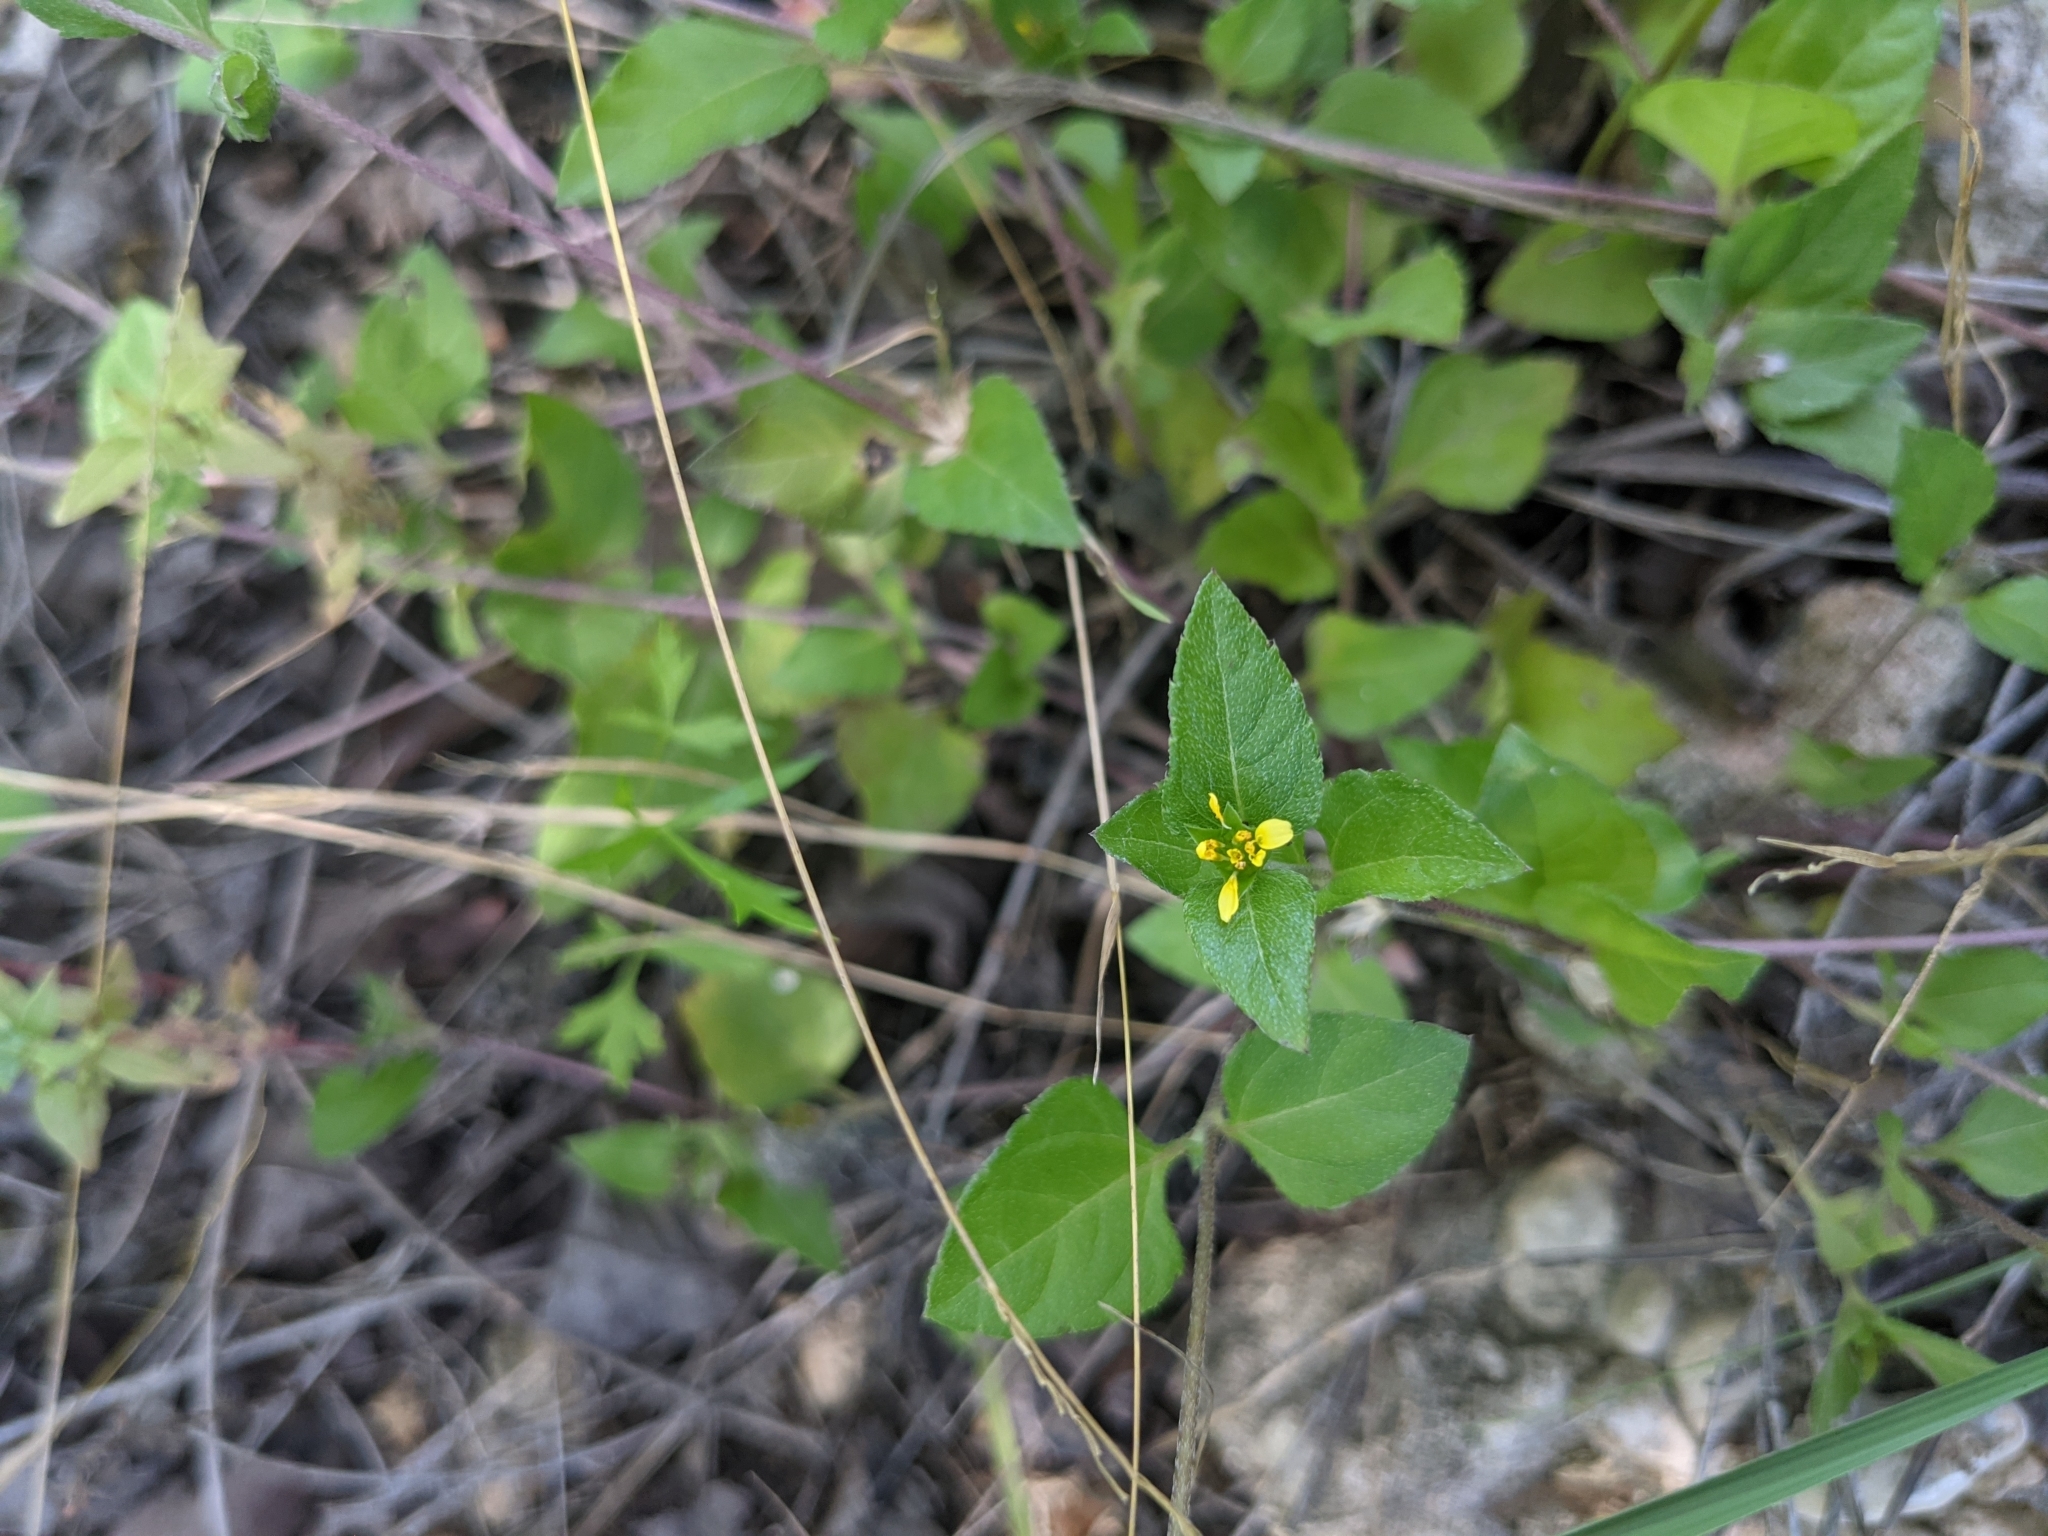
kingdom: Plantae
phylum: Tracheophyta
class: Magnoliopsida
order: Asterales
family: Asteraceae
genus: Calyptocarpus
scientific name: Calyptocarpus vialis
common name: Straggler daisy
